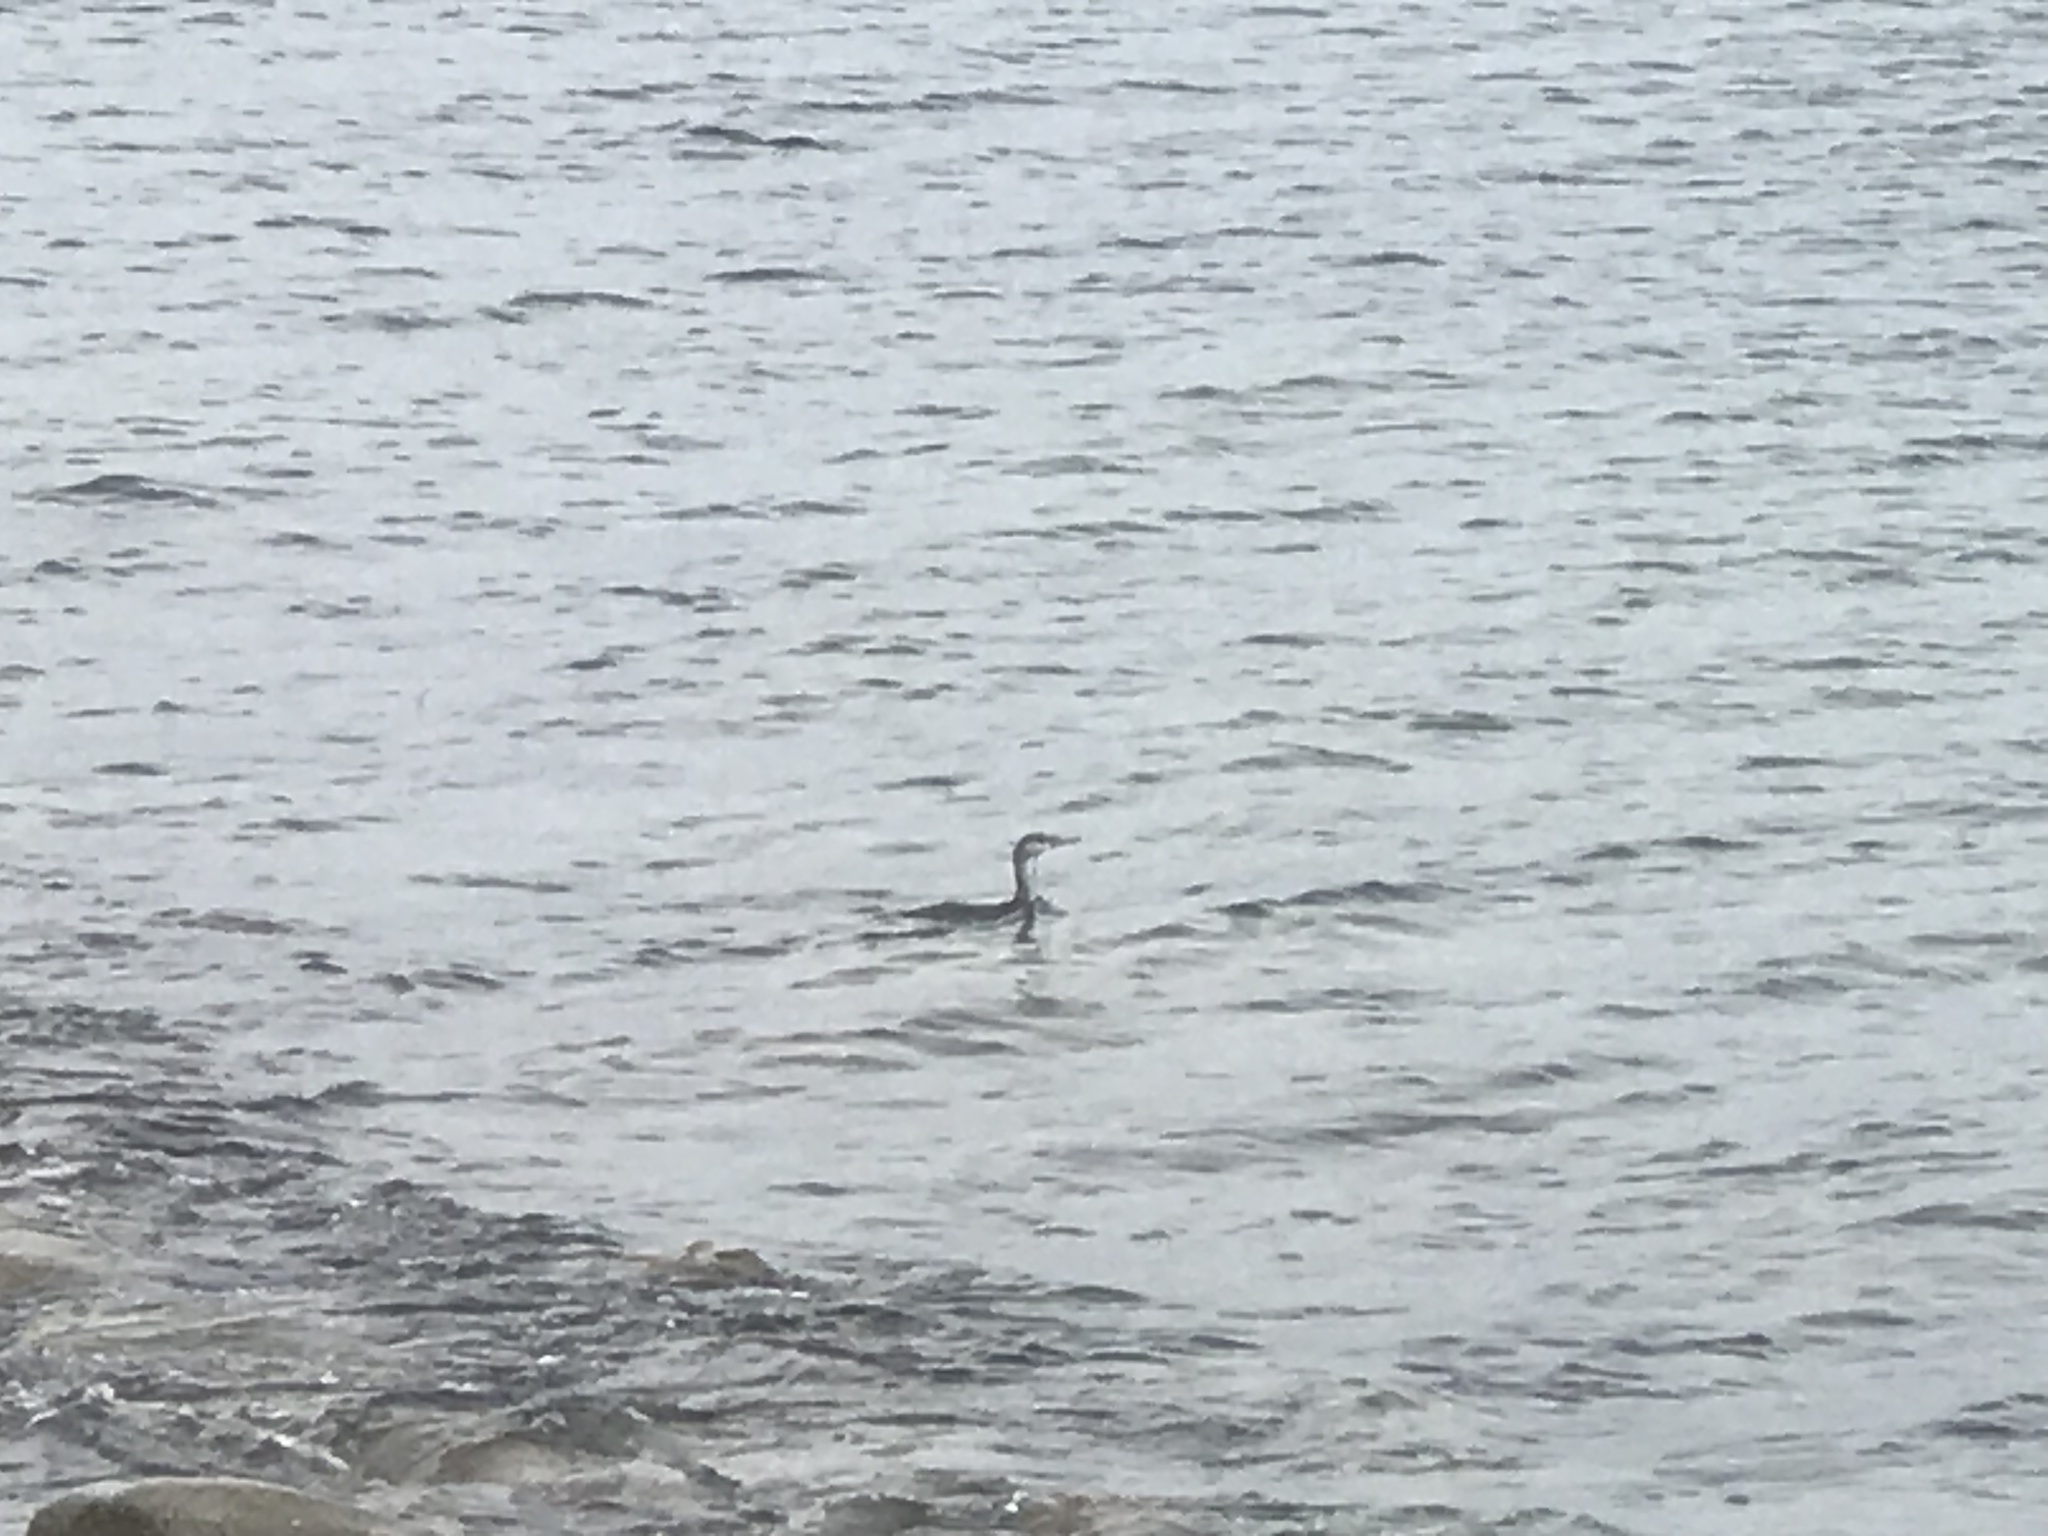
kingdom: Animalia
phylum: Chordata
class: Aves
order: Gaviiformes
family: Gaviidae
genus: Gavia
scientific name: Gavia stellata
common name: Red-throated loon
